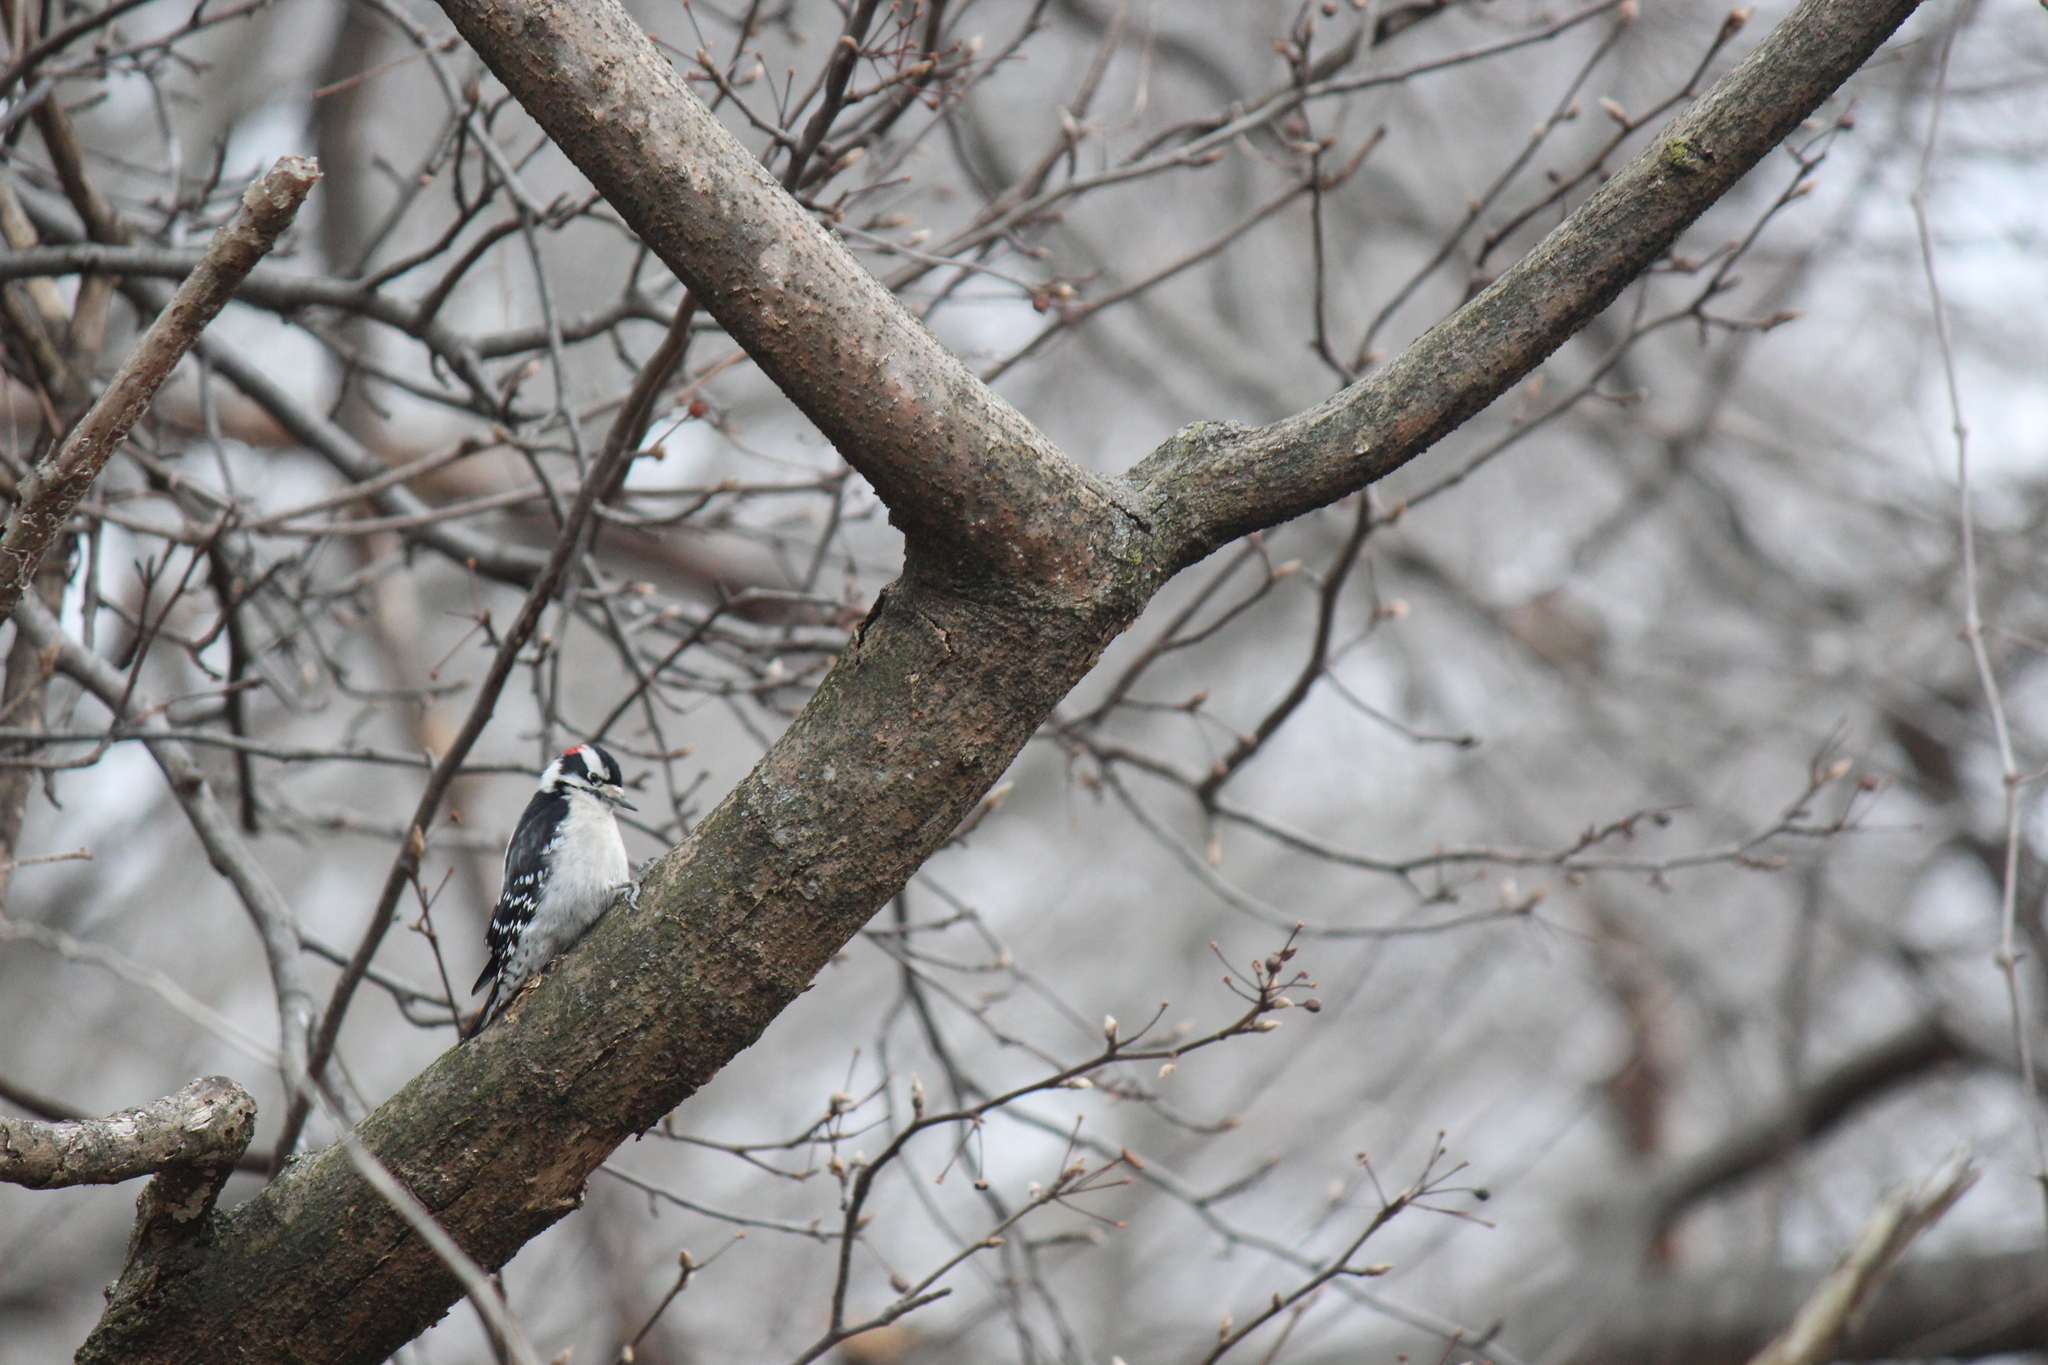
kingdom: Animalia
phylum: Chordata
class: Aves
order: Piciformes
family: Picidae
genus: Dryobates
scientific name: Dryobates pubescens
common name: Downy woodpecker
